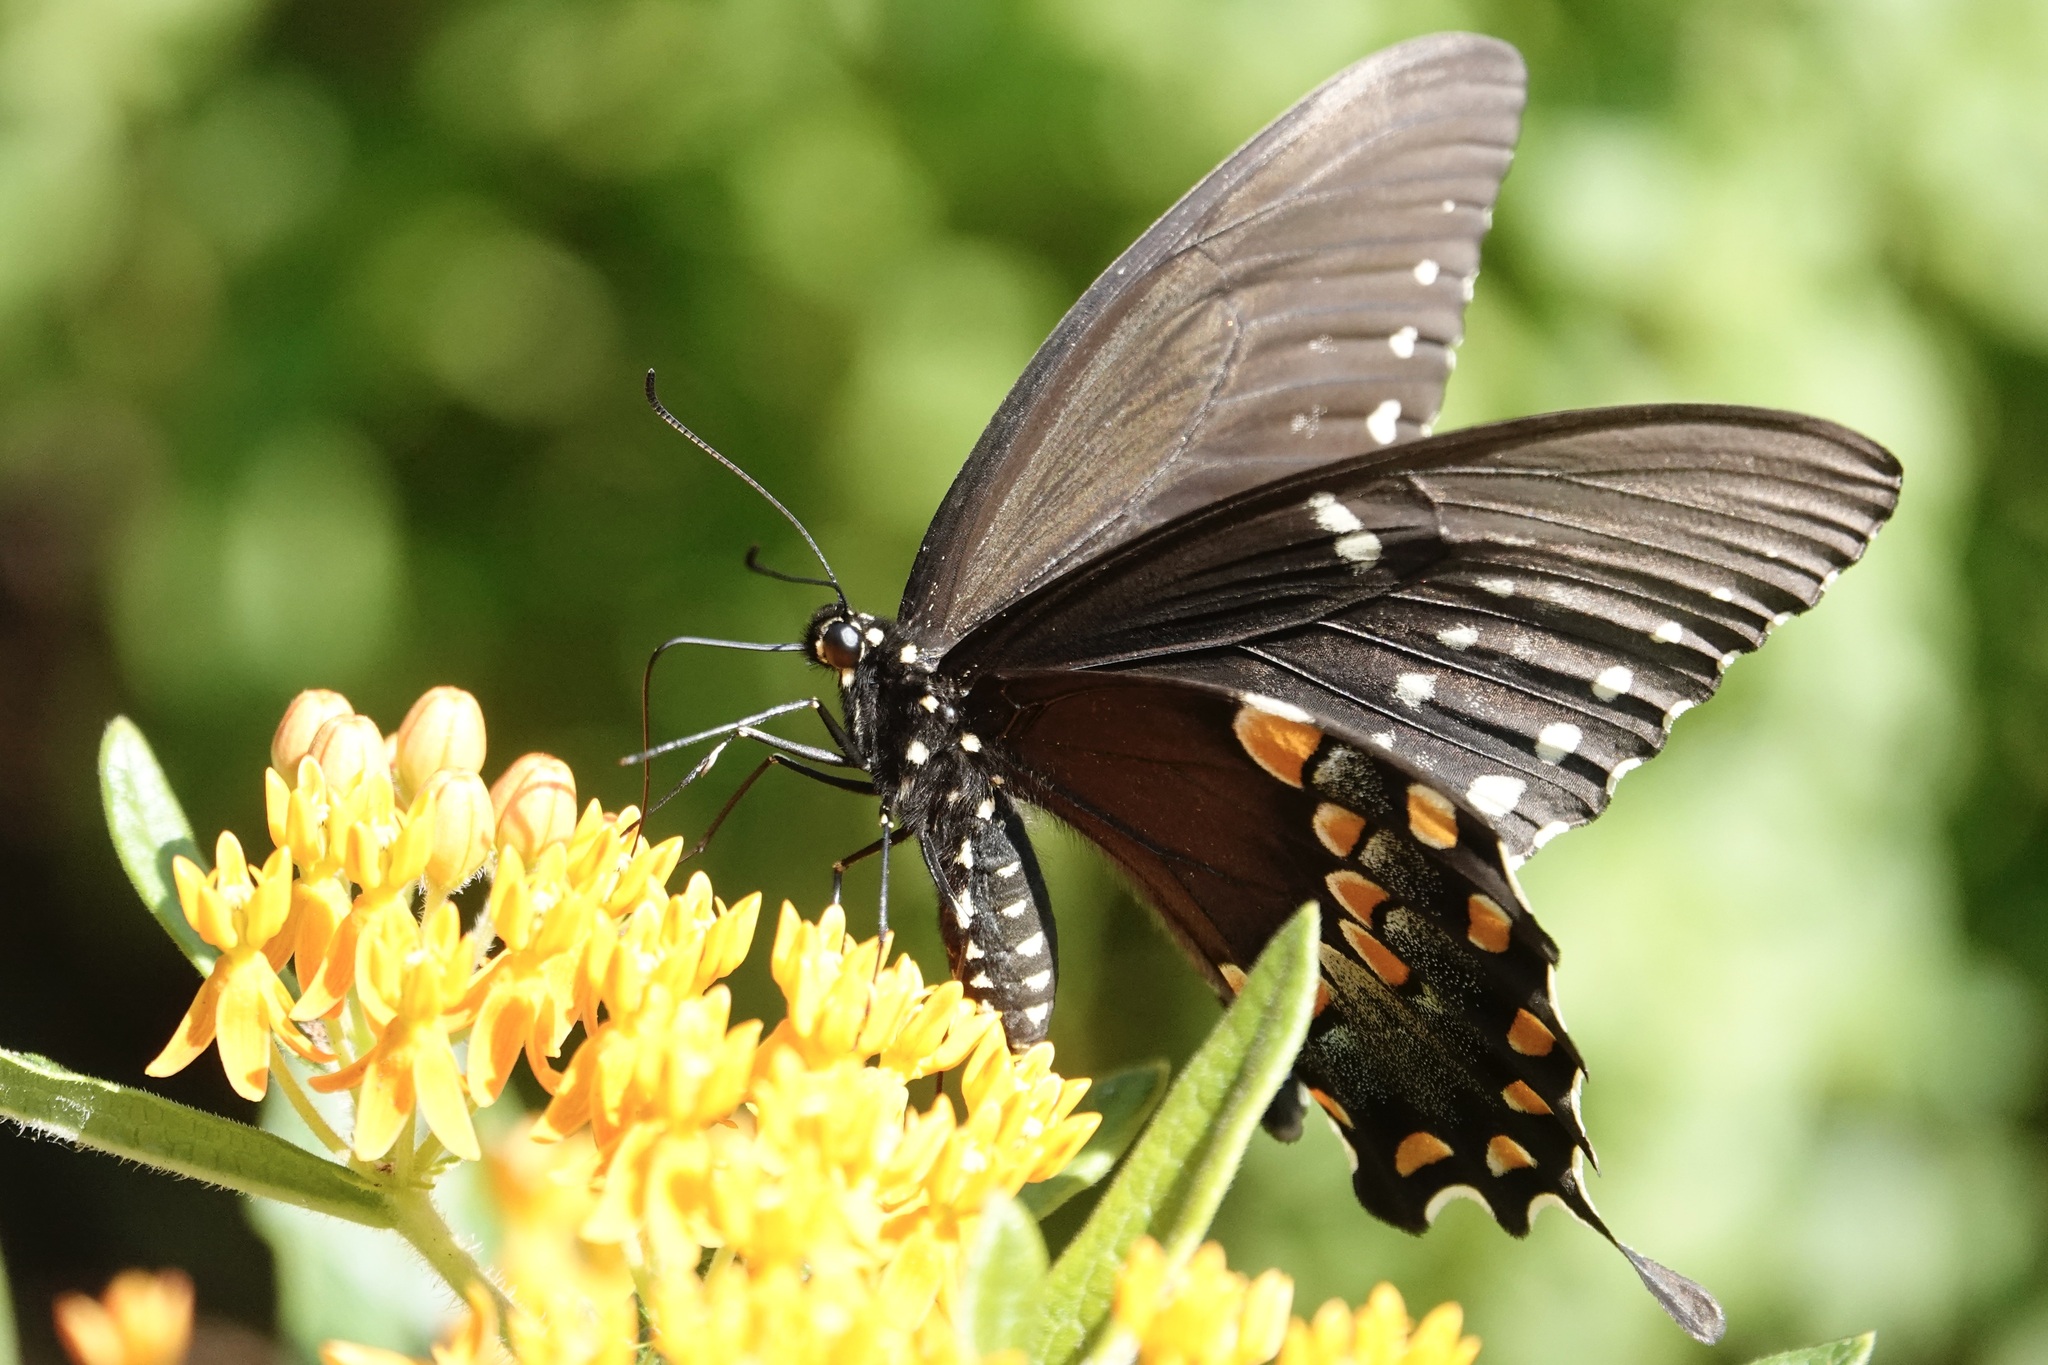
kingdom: Animalia
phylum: Arthropoda
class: Insecta
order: Lepidoptera
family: Papilionidae
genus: Papilio
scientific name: Papilio troilus
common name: Spicebush swallowtail
